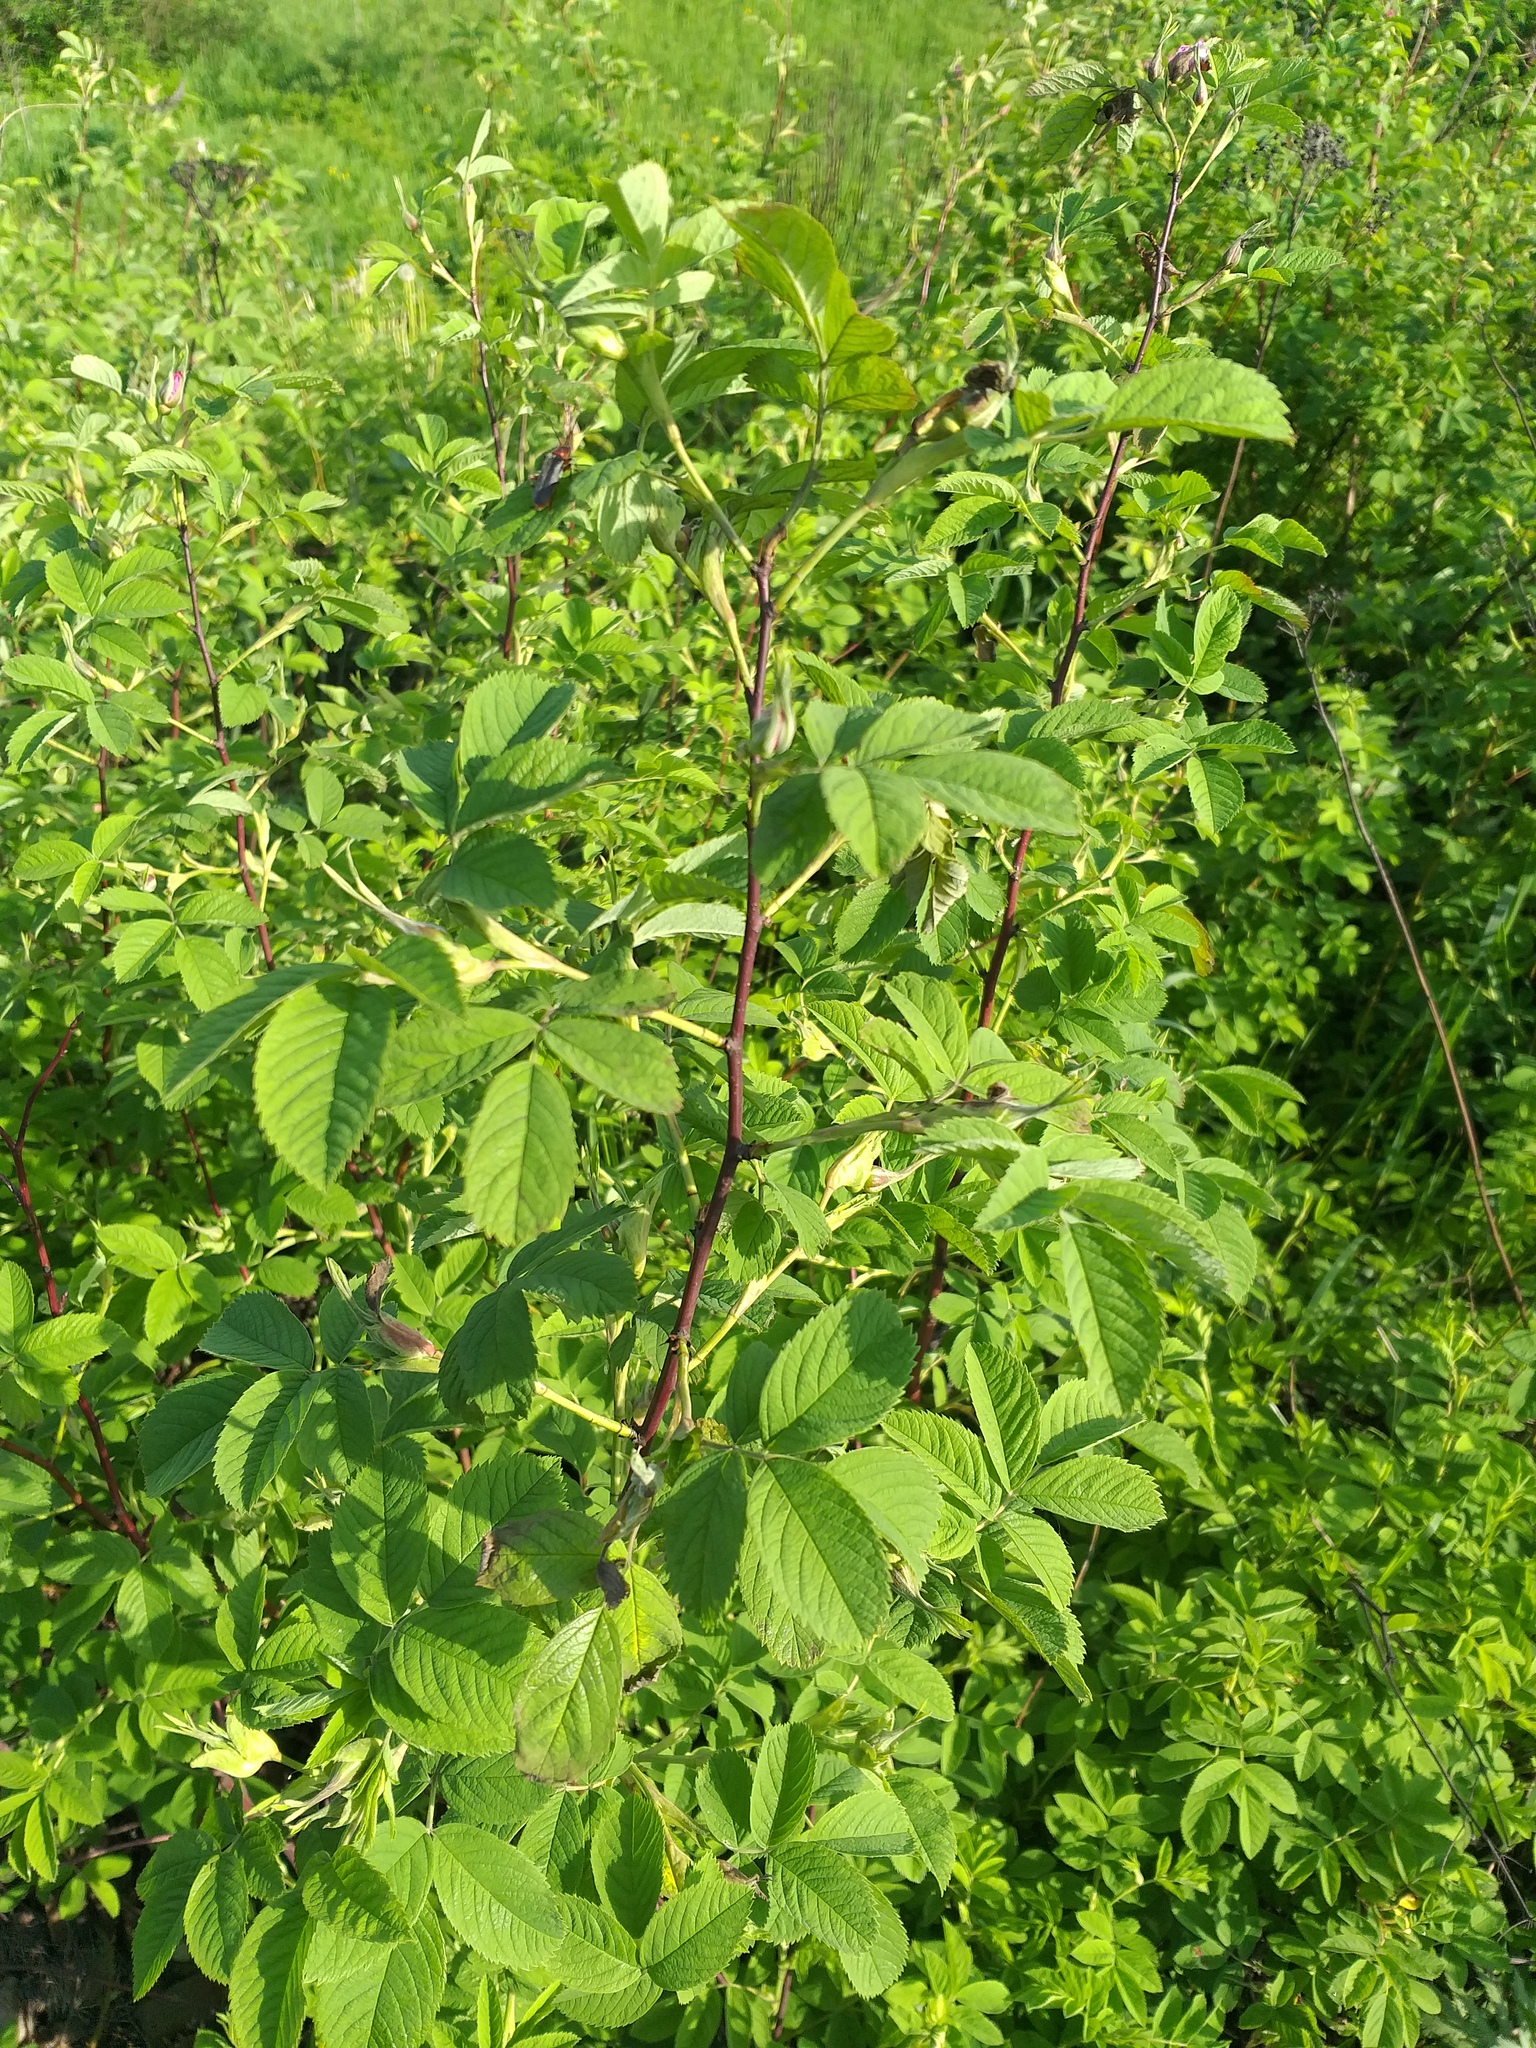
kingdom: Plantae
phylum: Tracheophyta
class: Magnoliopsida
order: Rosales
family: Rosaceae
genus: Rosa
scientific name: Rosa majalis
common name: Cinnamon rose
